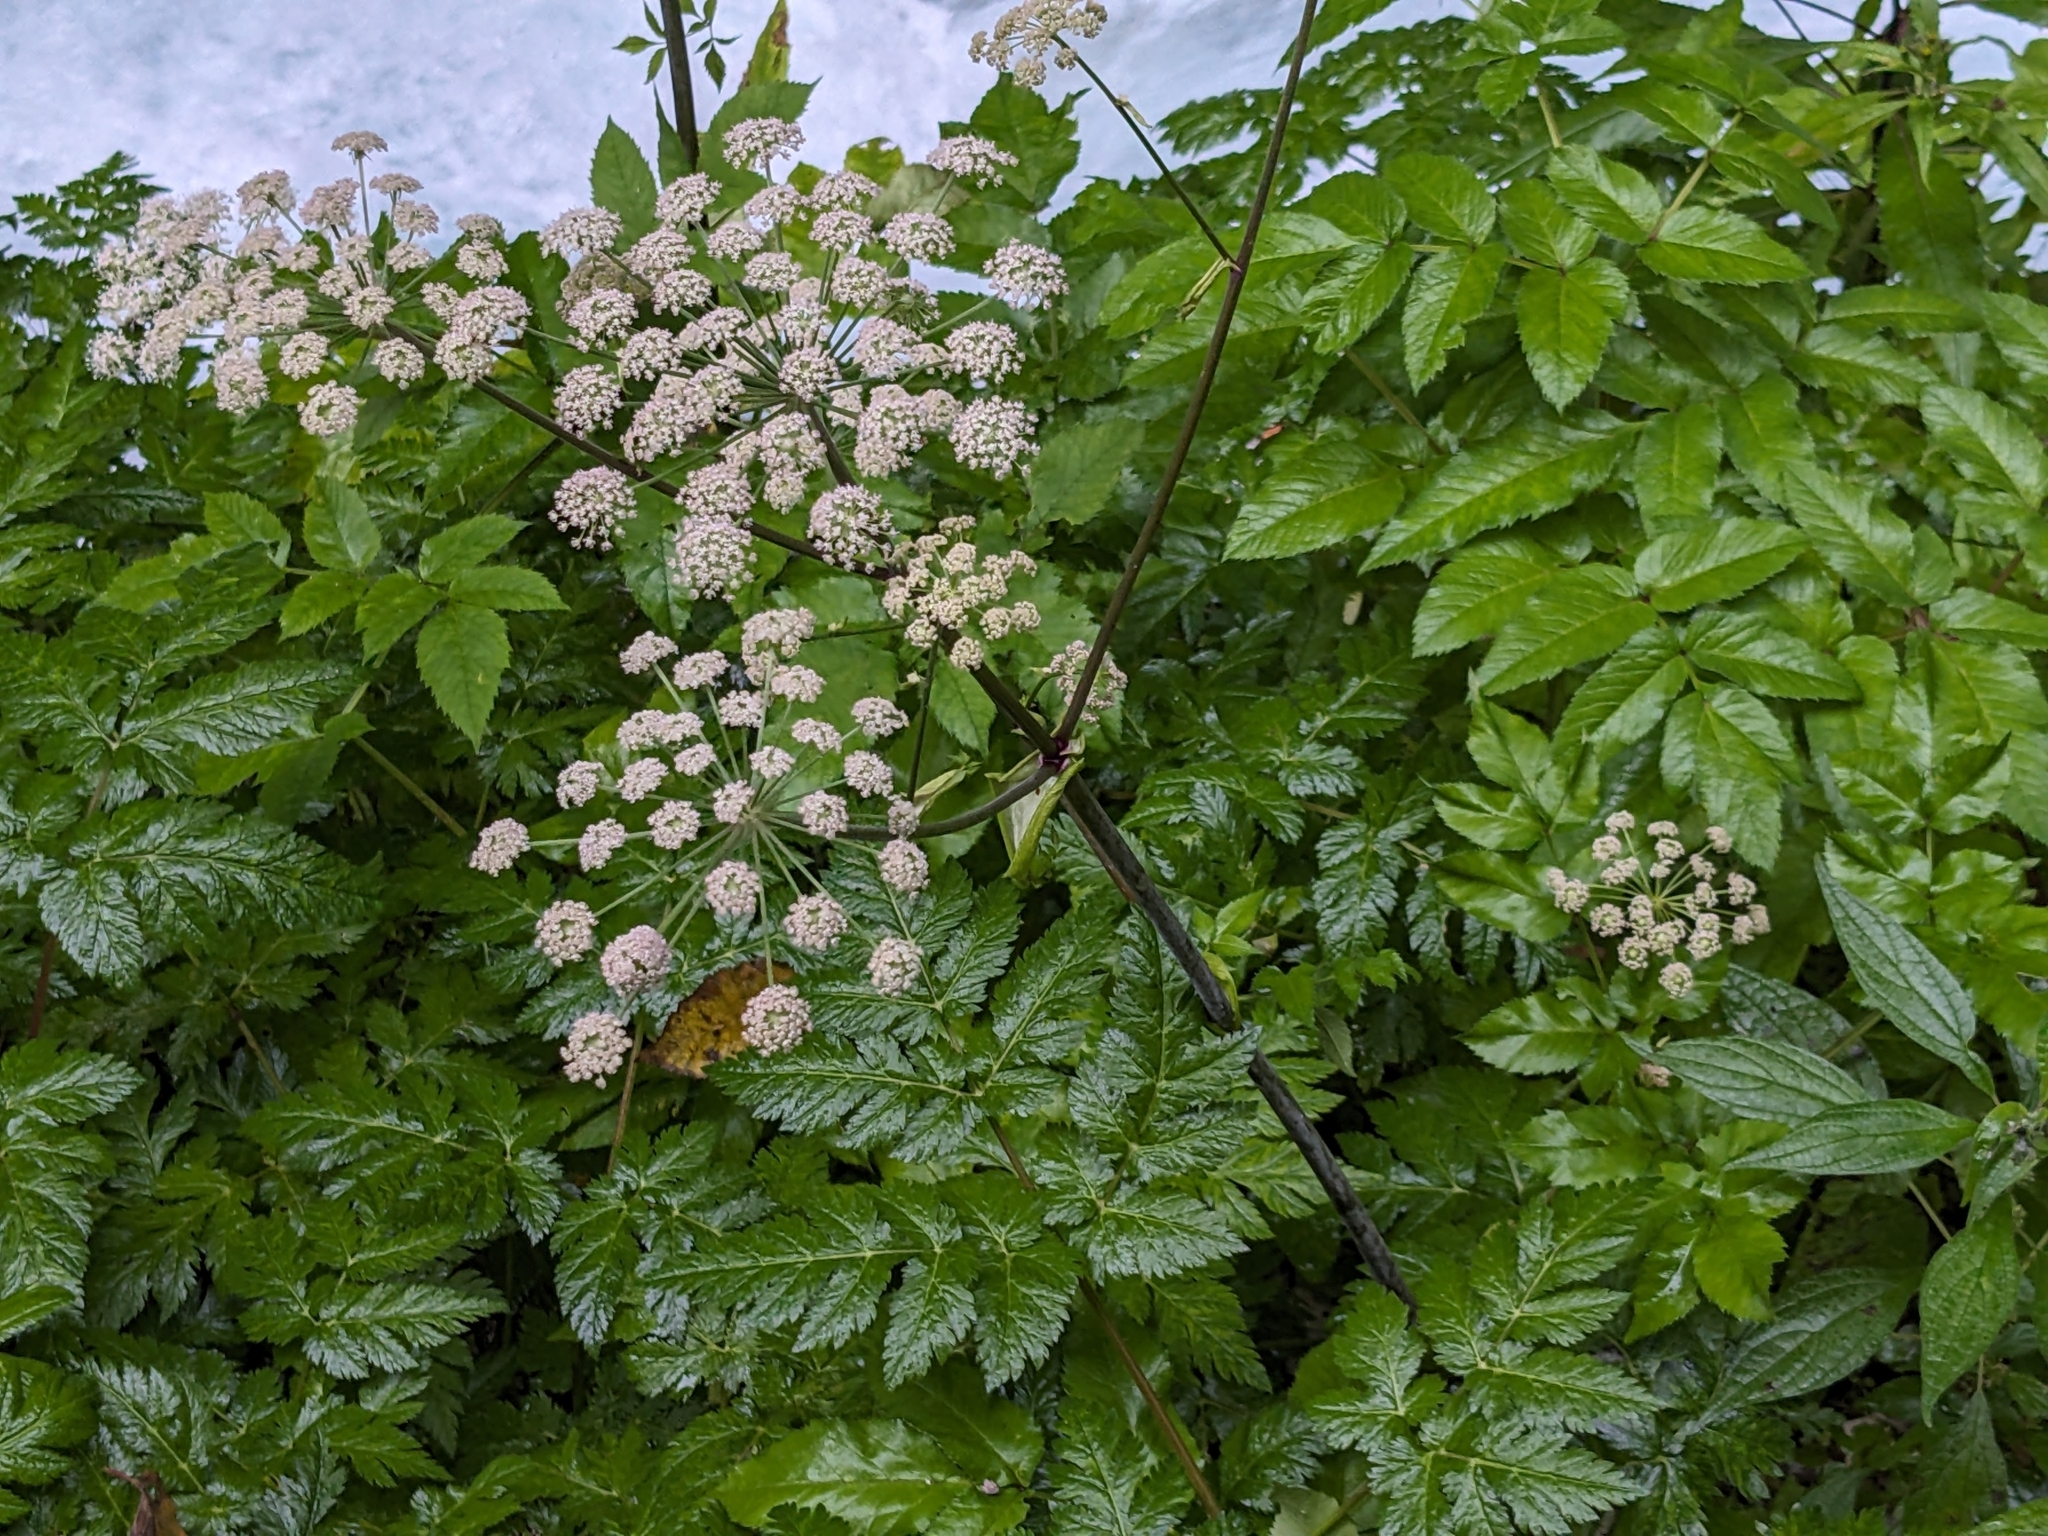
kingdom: Plantae
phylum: Tracheophyta
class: Magnoliopsida
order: Apiales
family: Apiaceae
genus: Angelica
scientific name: Angelica sylvestris
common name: Wild angelica
